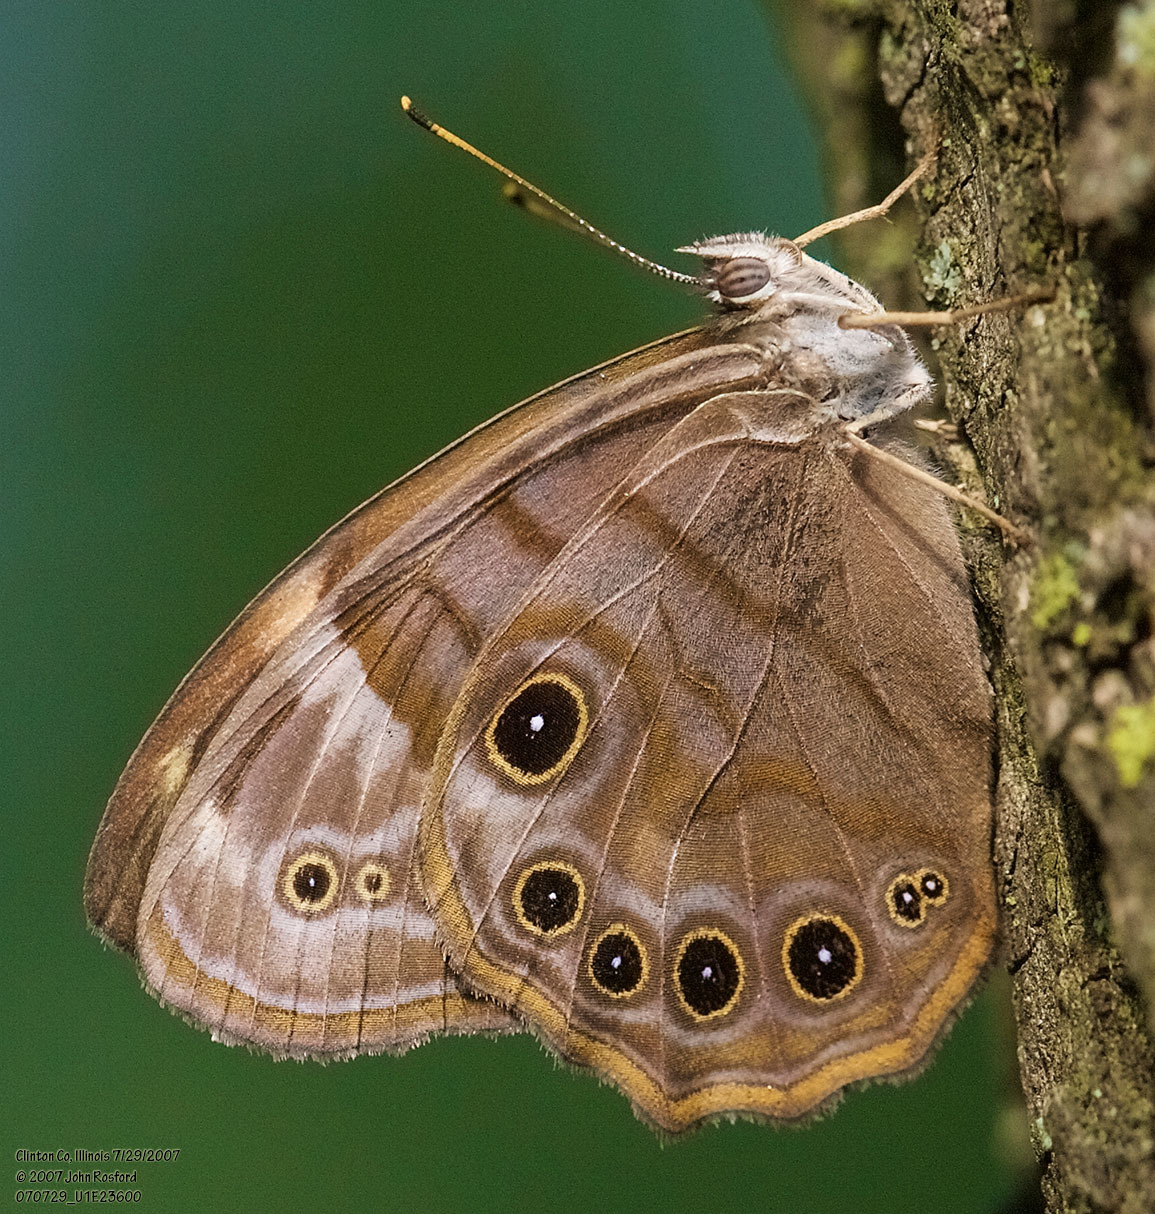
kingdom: Animalia
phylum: Arthropoda
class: Insecta
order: Lepidoptera
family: Nymphalidae
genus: Lethe
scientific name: Lethe anthedon
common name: Northern pearly-eye
